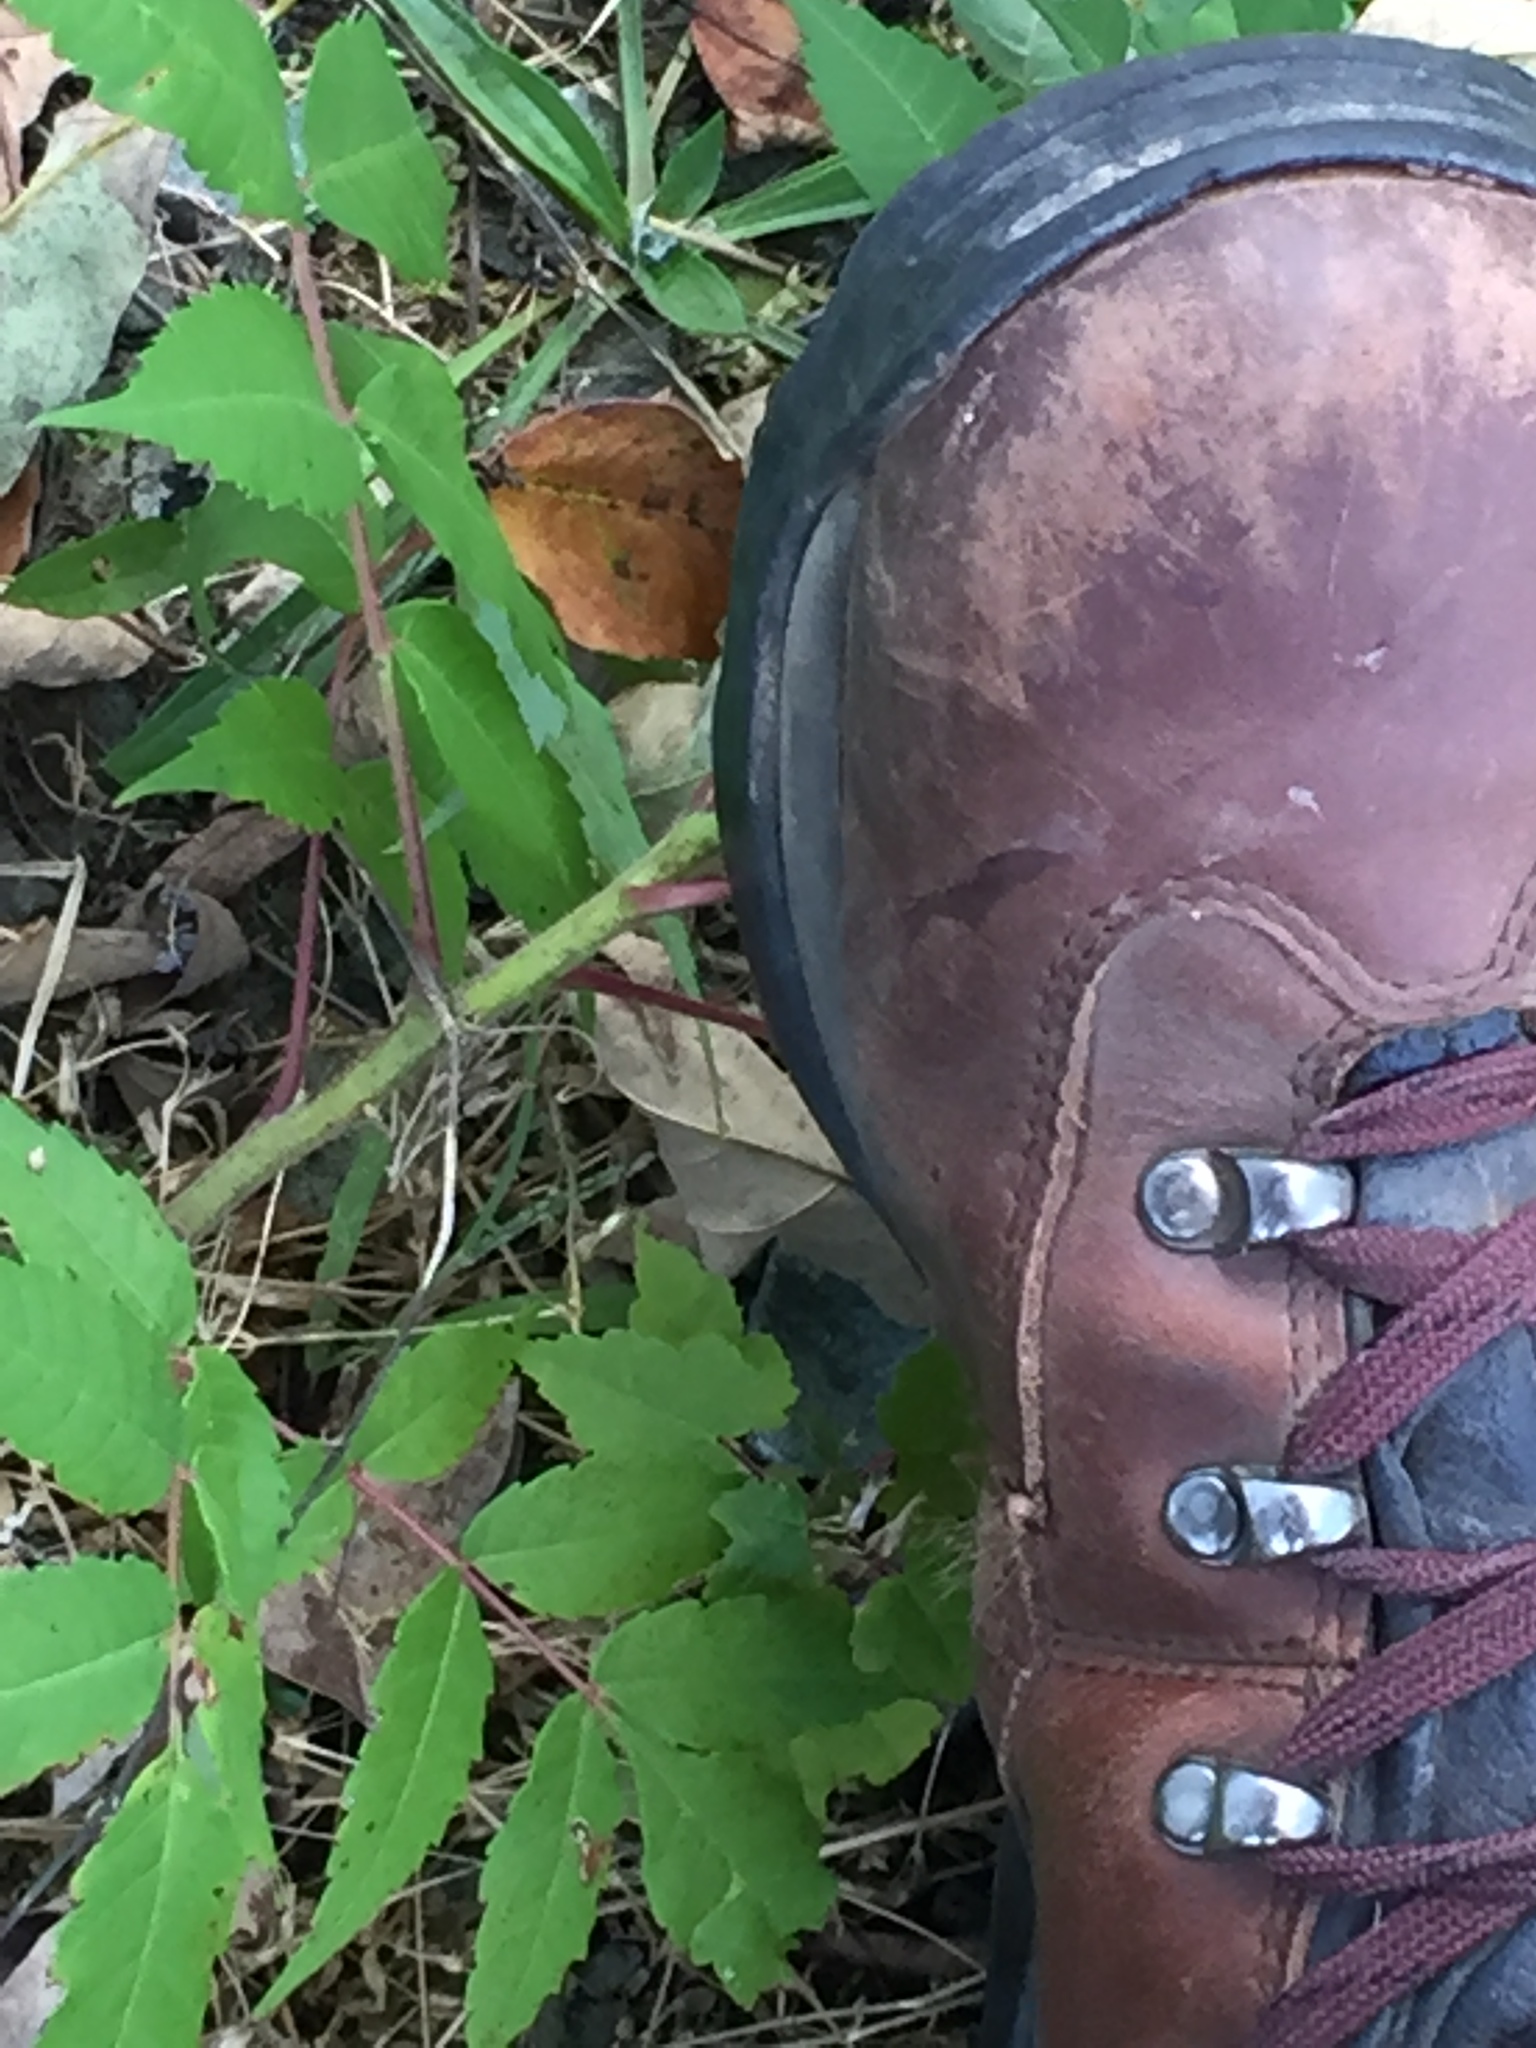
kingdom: Plantae
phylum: Tracheophyta
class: Magnoliopsida
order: Sapindales
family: Anacardiaceae
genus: Rhus
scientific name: Rhus typhina
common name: Staghorn sumac
